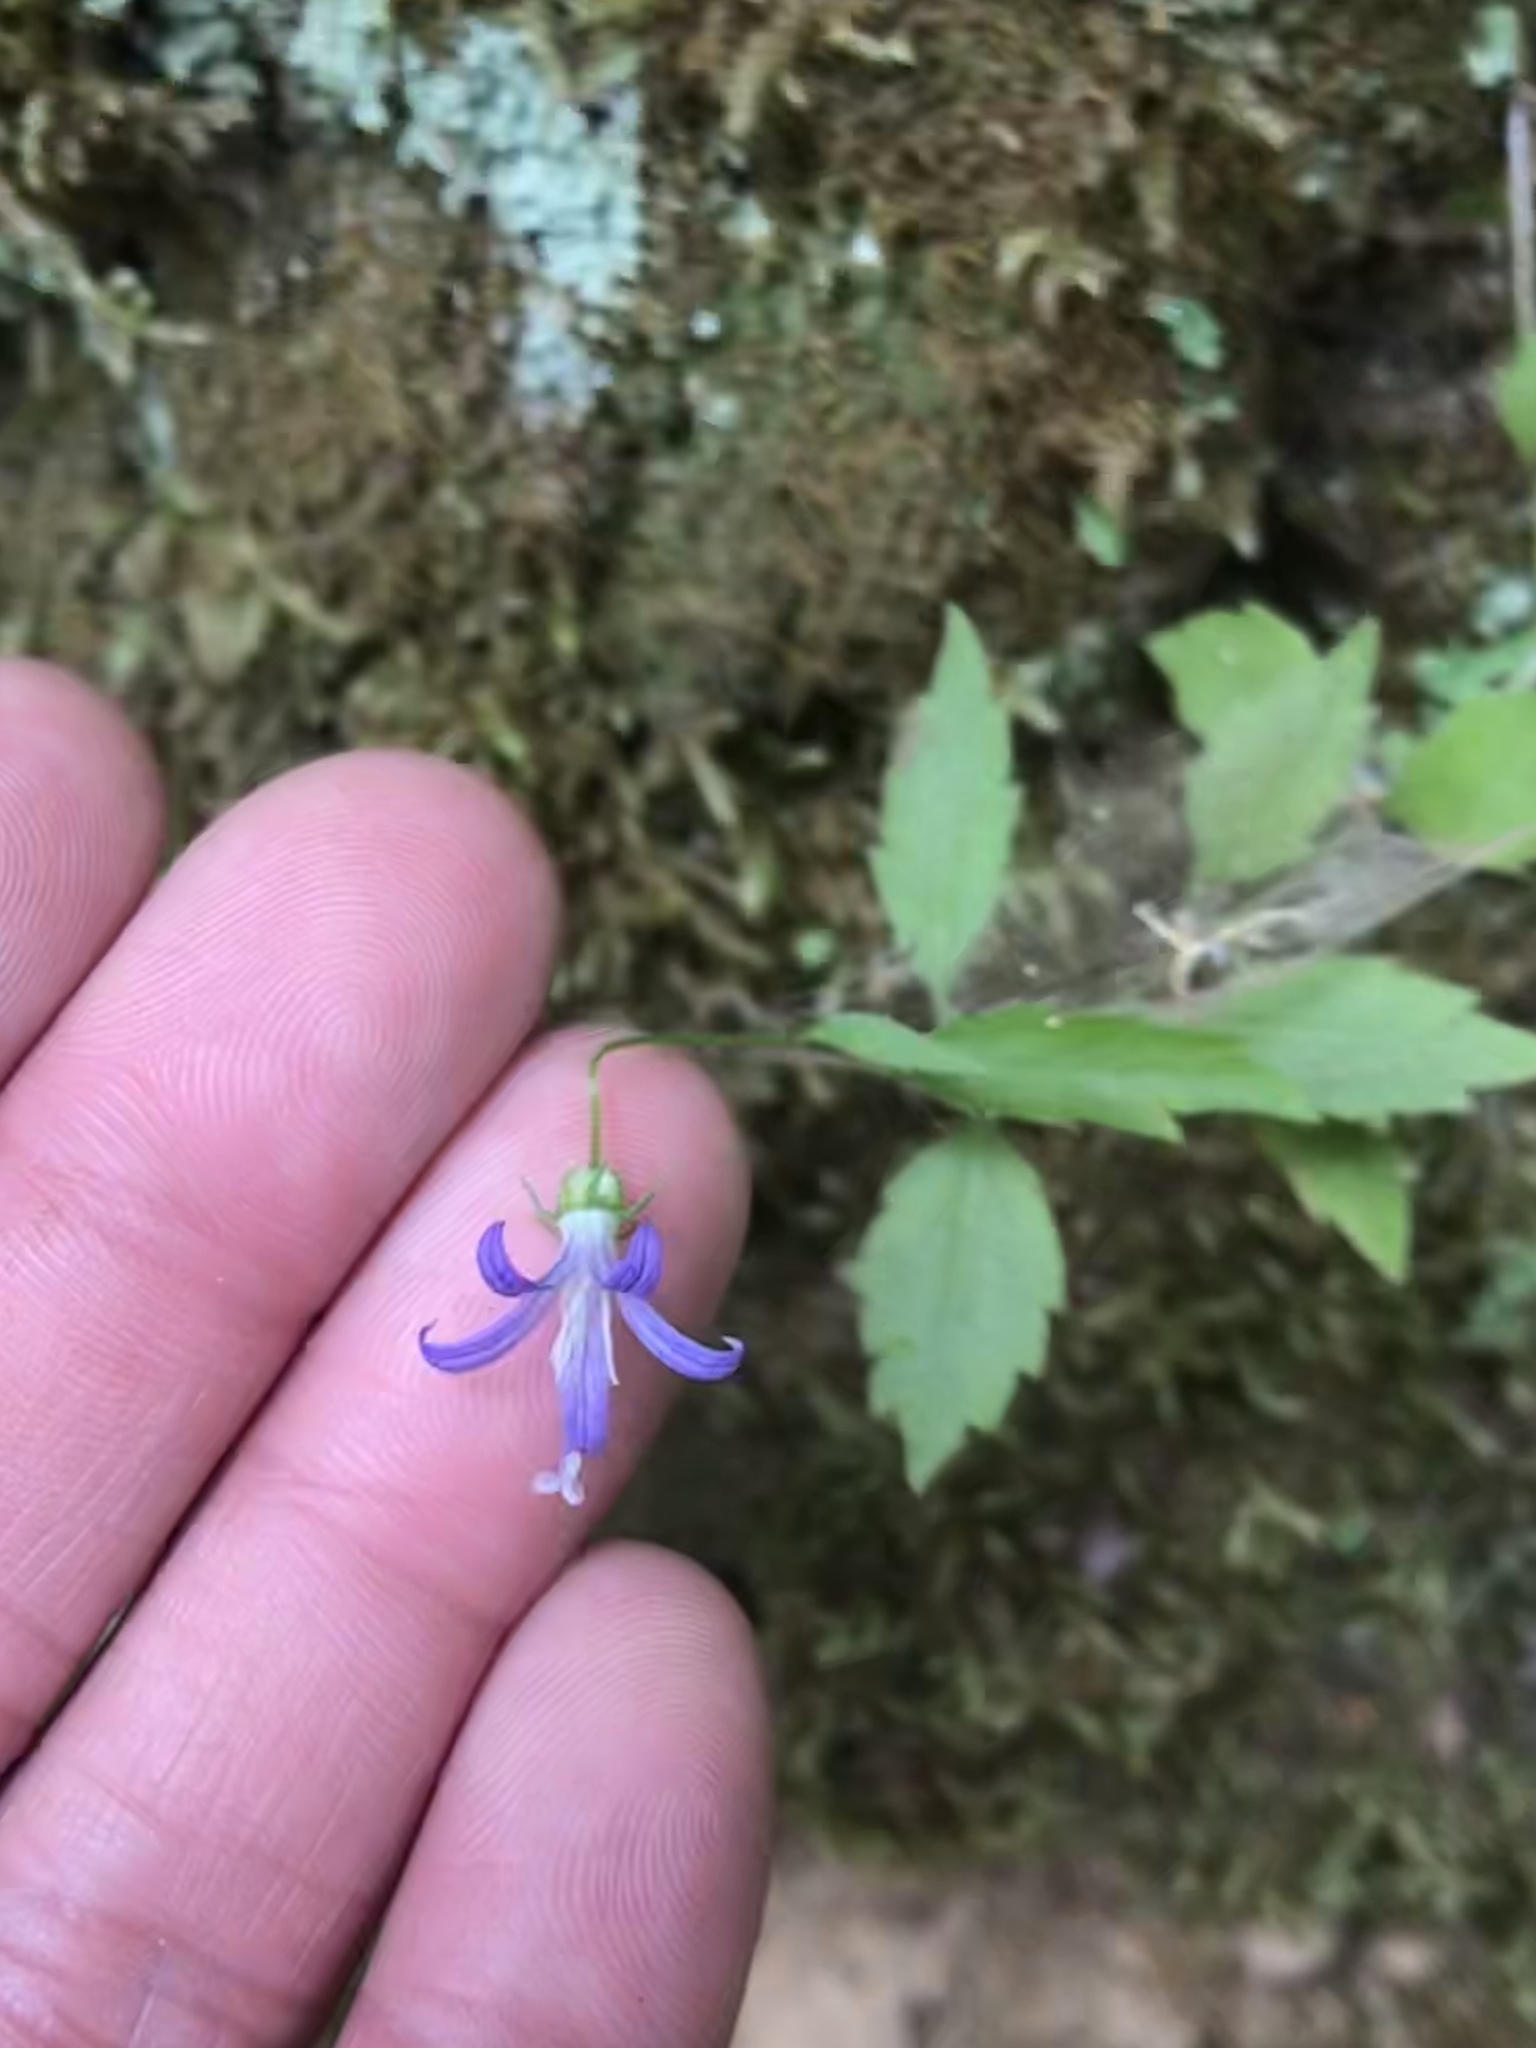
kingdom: Plantae
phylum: Tracheophyta
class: Magnoliopsida
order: Asterales
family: Campanulaceae
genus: Smithiastrum
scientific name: Smithiastrum prenanthoides
